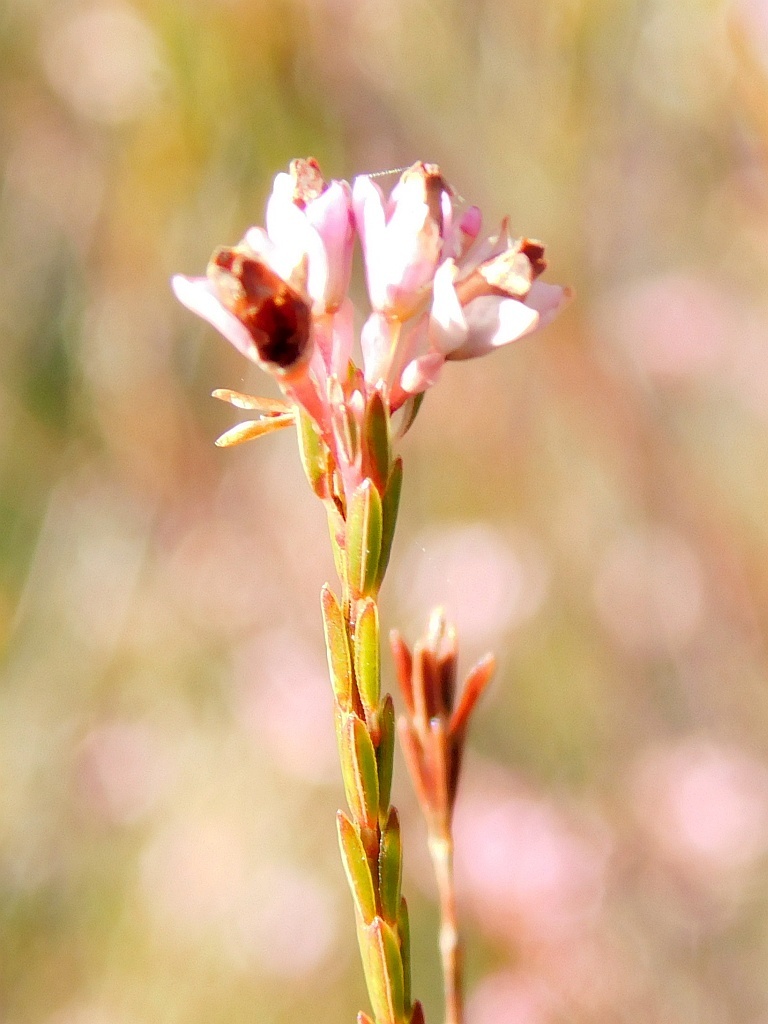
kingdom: Plantae
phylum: Tracheophyta
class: Magnoliopsida
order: Ericales
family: Ericaceae
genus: Erica
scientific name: Erica articularis
